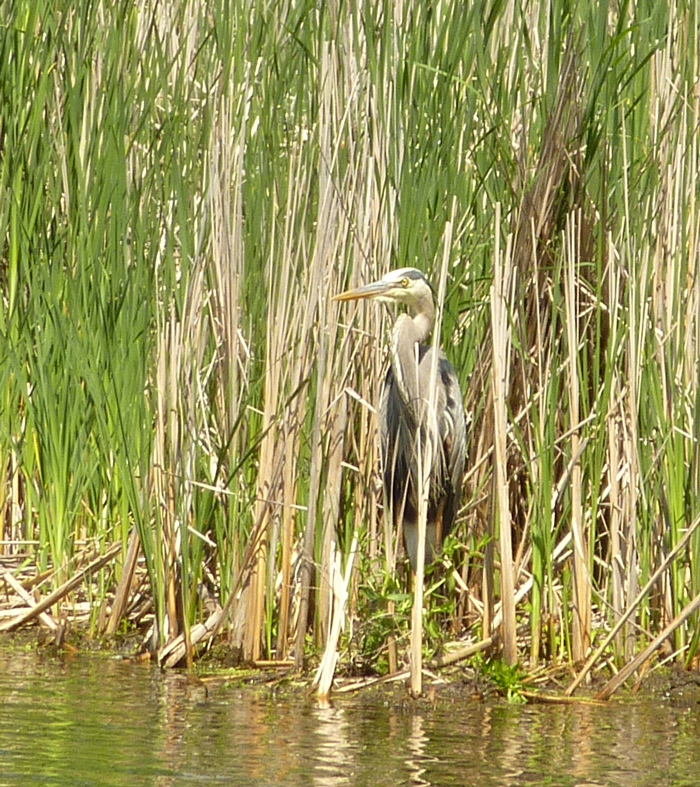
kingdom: Animalia
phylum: Chordata
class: Aves
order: Pelecaniformes
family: Ardeidae
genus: Ardea
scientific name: Ardea herodias
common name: Great blue heron
